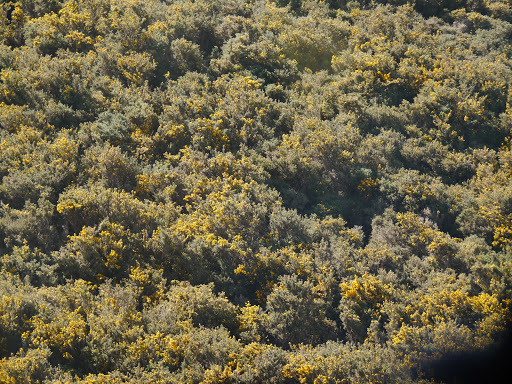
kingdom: Plantae
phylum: Tracheophyta
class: Magnoliopsida
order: Fabales
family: Fabaceae
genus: Ulex
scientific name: Ulex europaeus
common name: Common gorse
